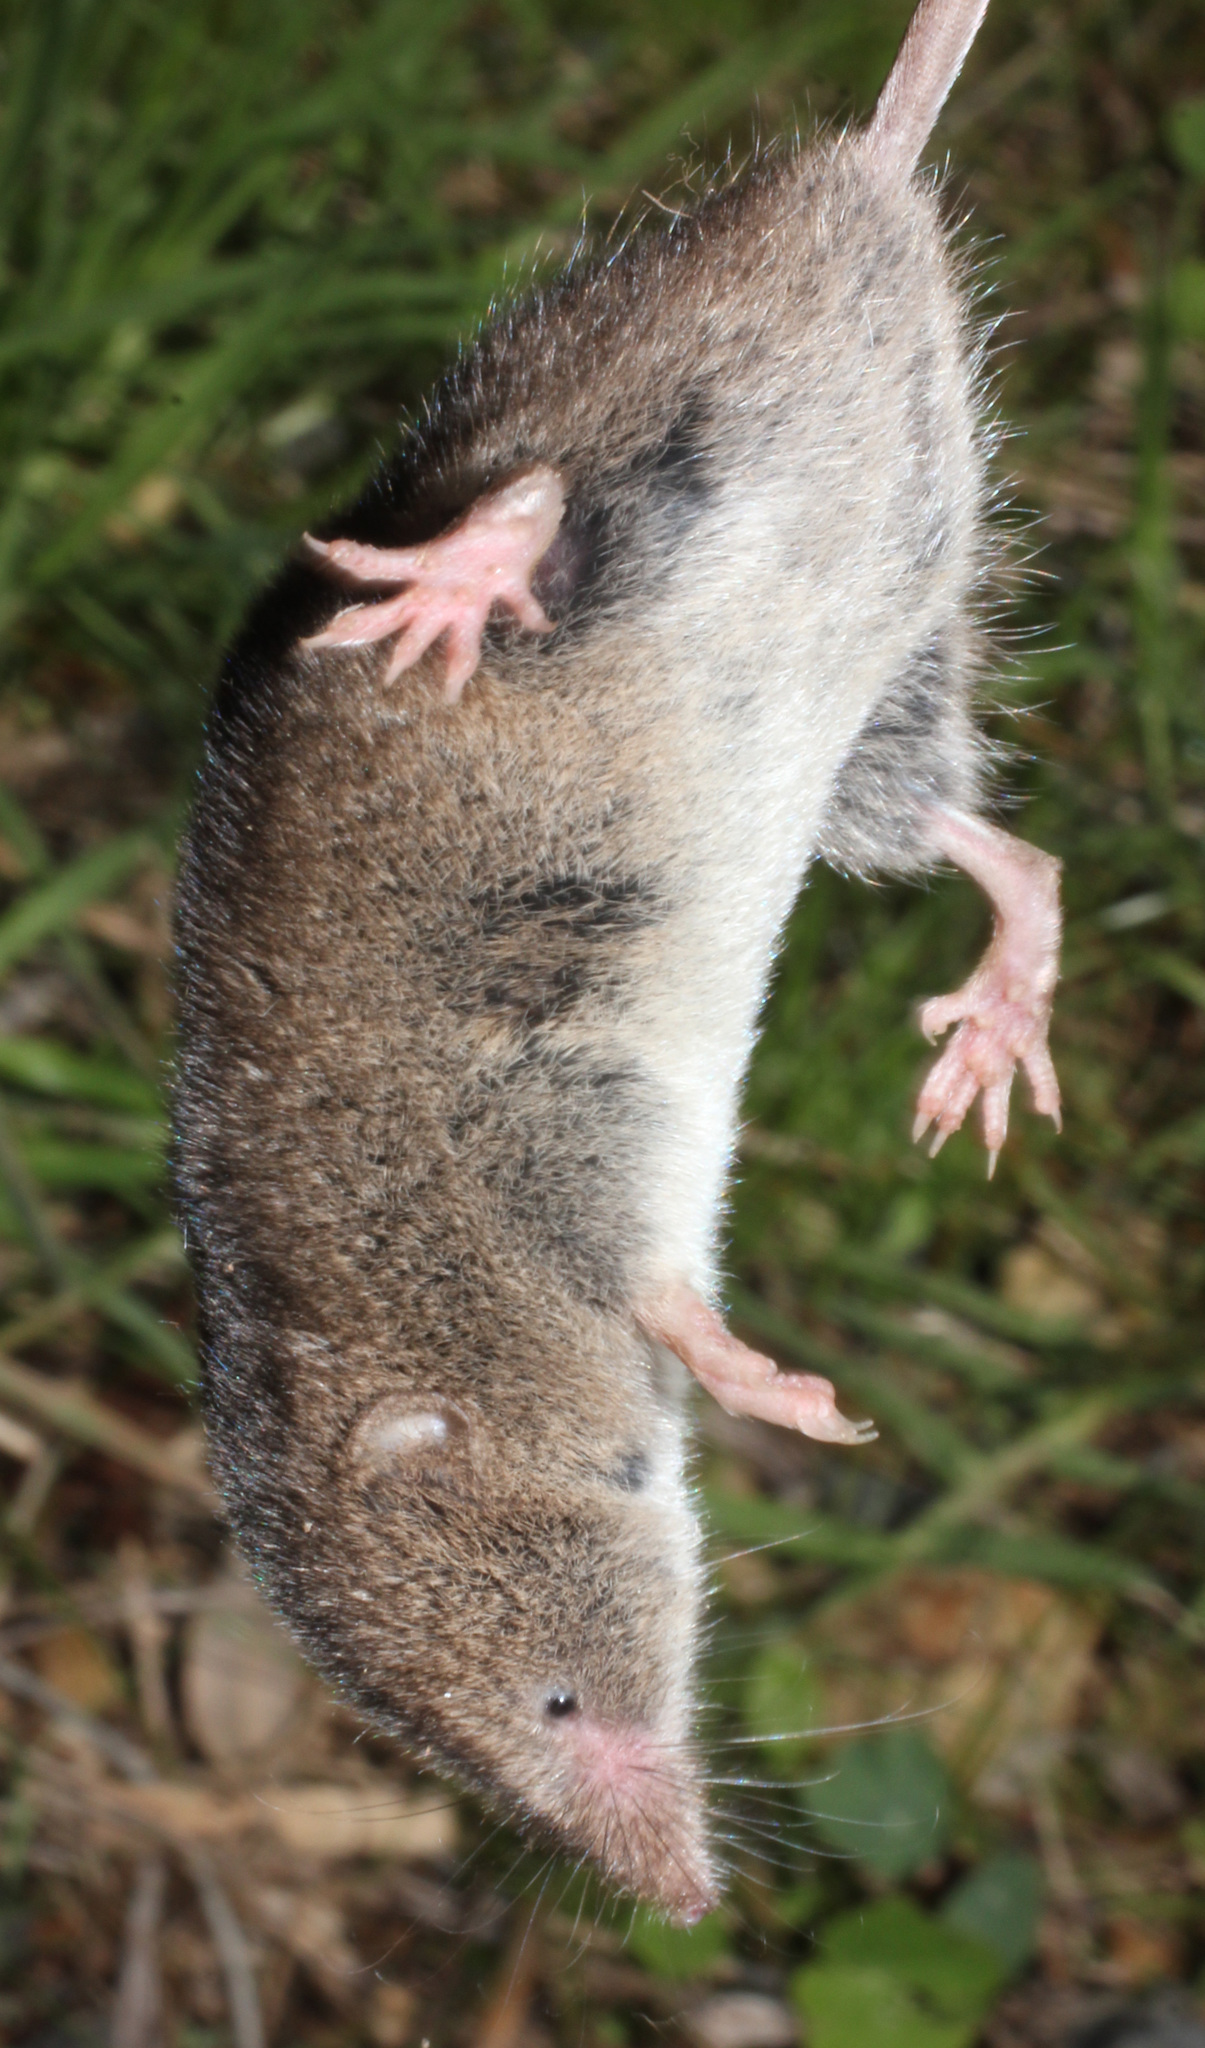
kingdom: Animalia
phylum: Chordata
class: Mammalia
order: Soricomorpha
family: Soricidae
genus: Myosorex
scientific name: Myosorex varius
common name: Forest shrew
